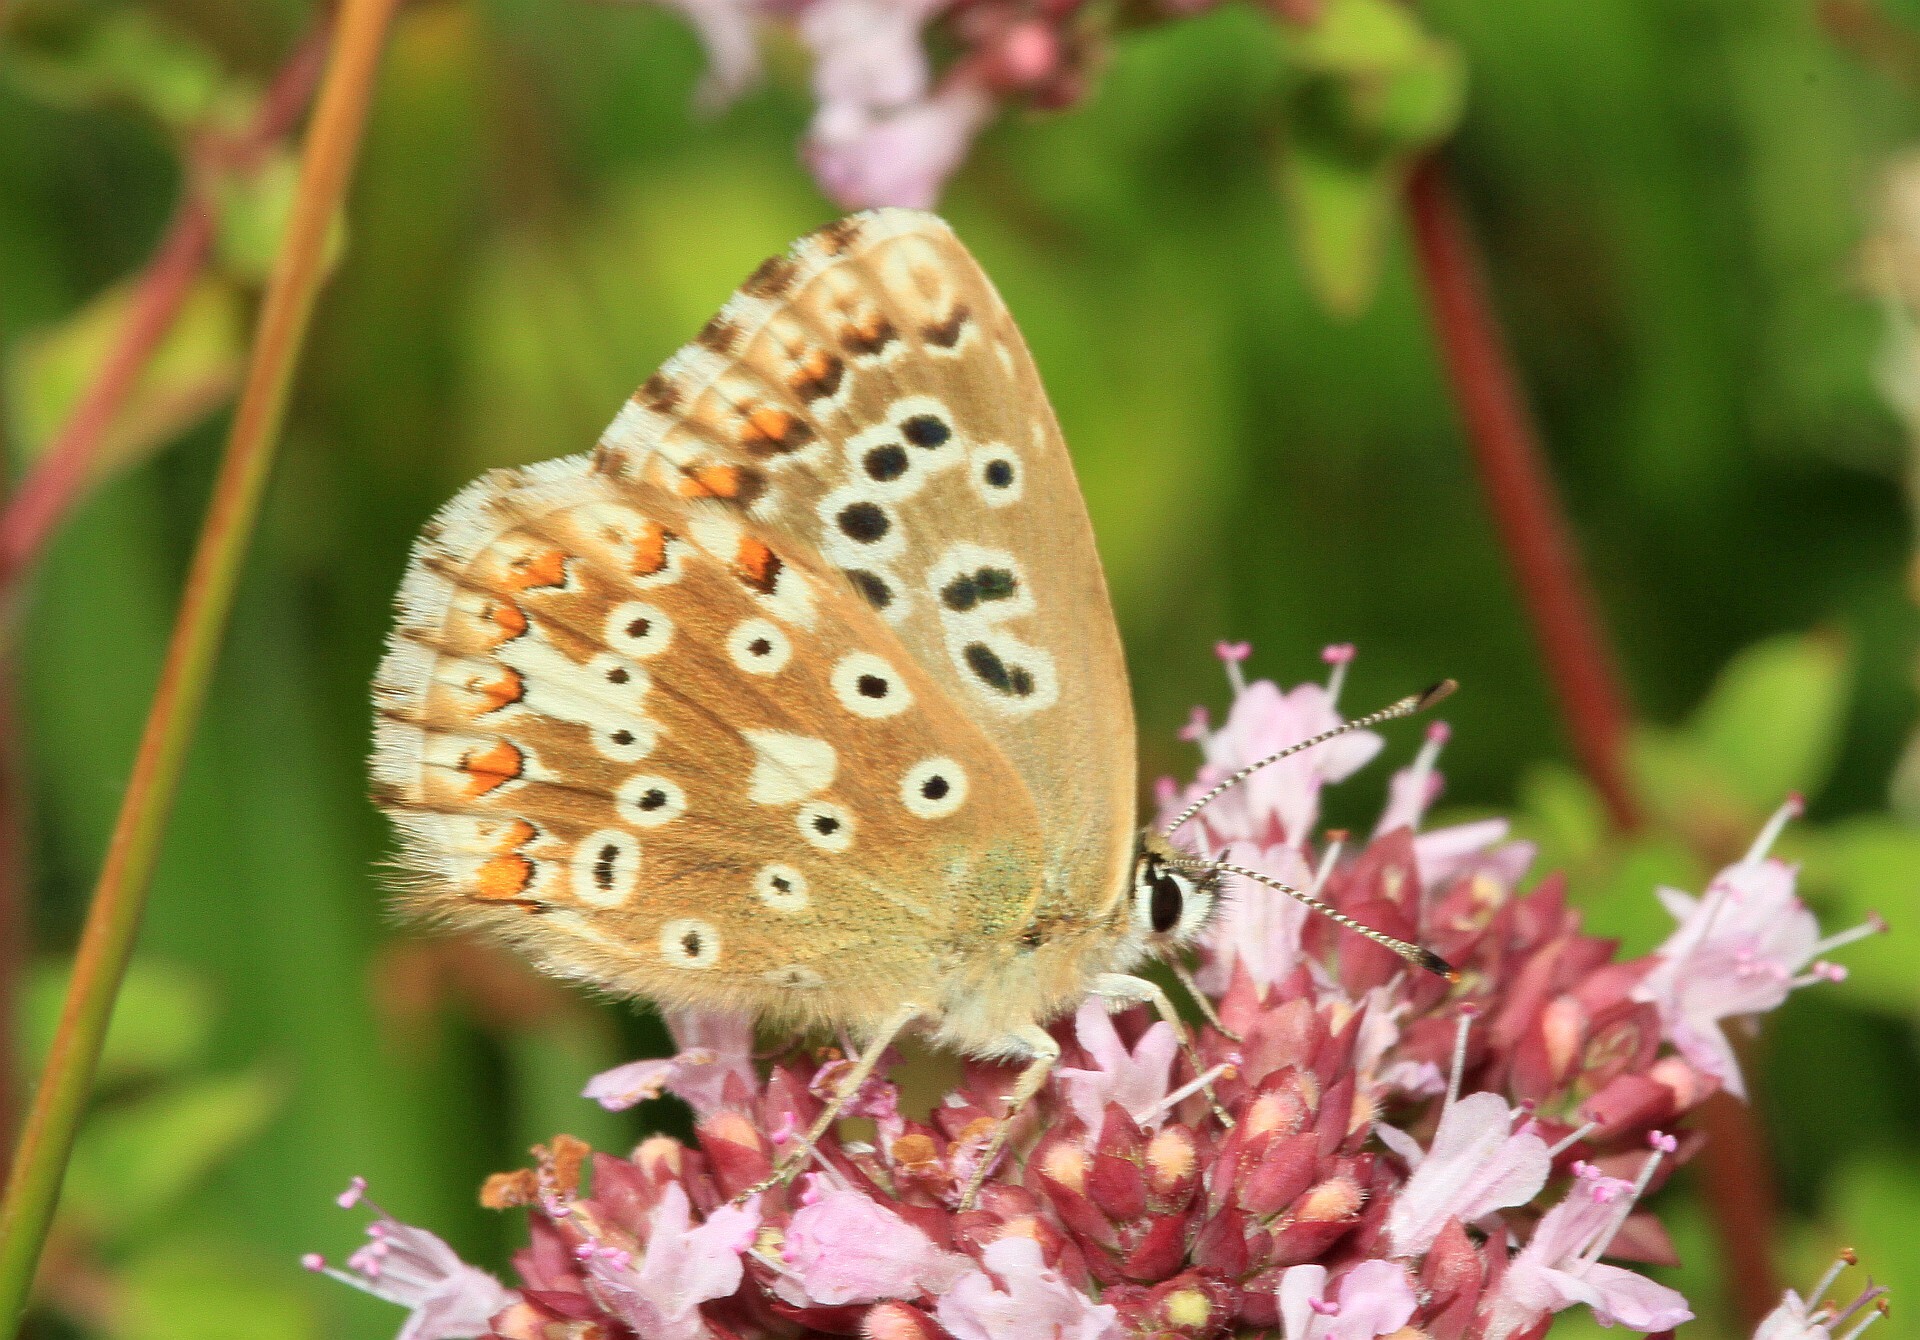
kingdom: Animalia
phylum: Arthropoda
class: Insecta
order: Lepidoptera
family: Lycaenidae
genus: Lysandra
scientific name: Lysandra coridon
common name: Chalkhill blue
